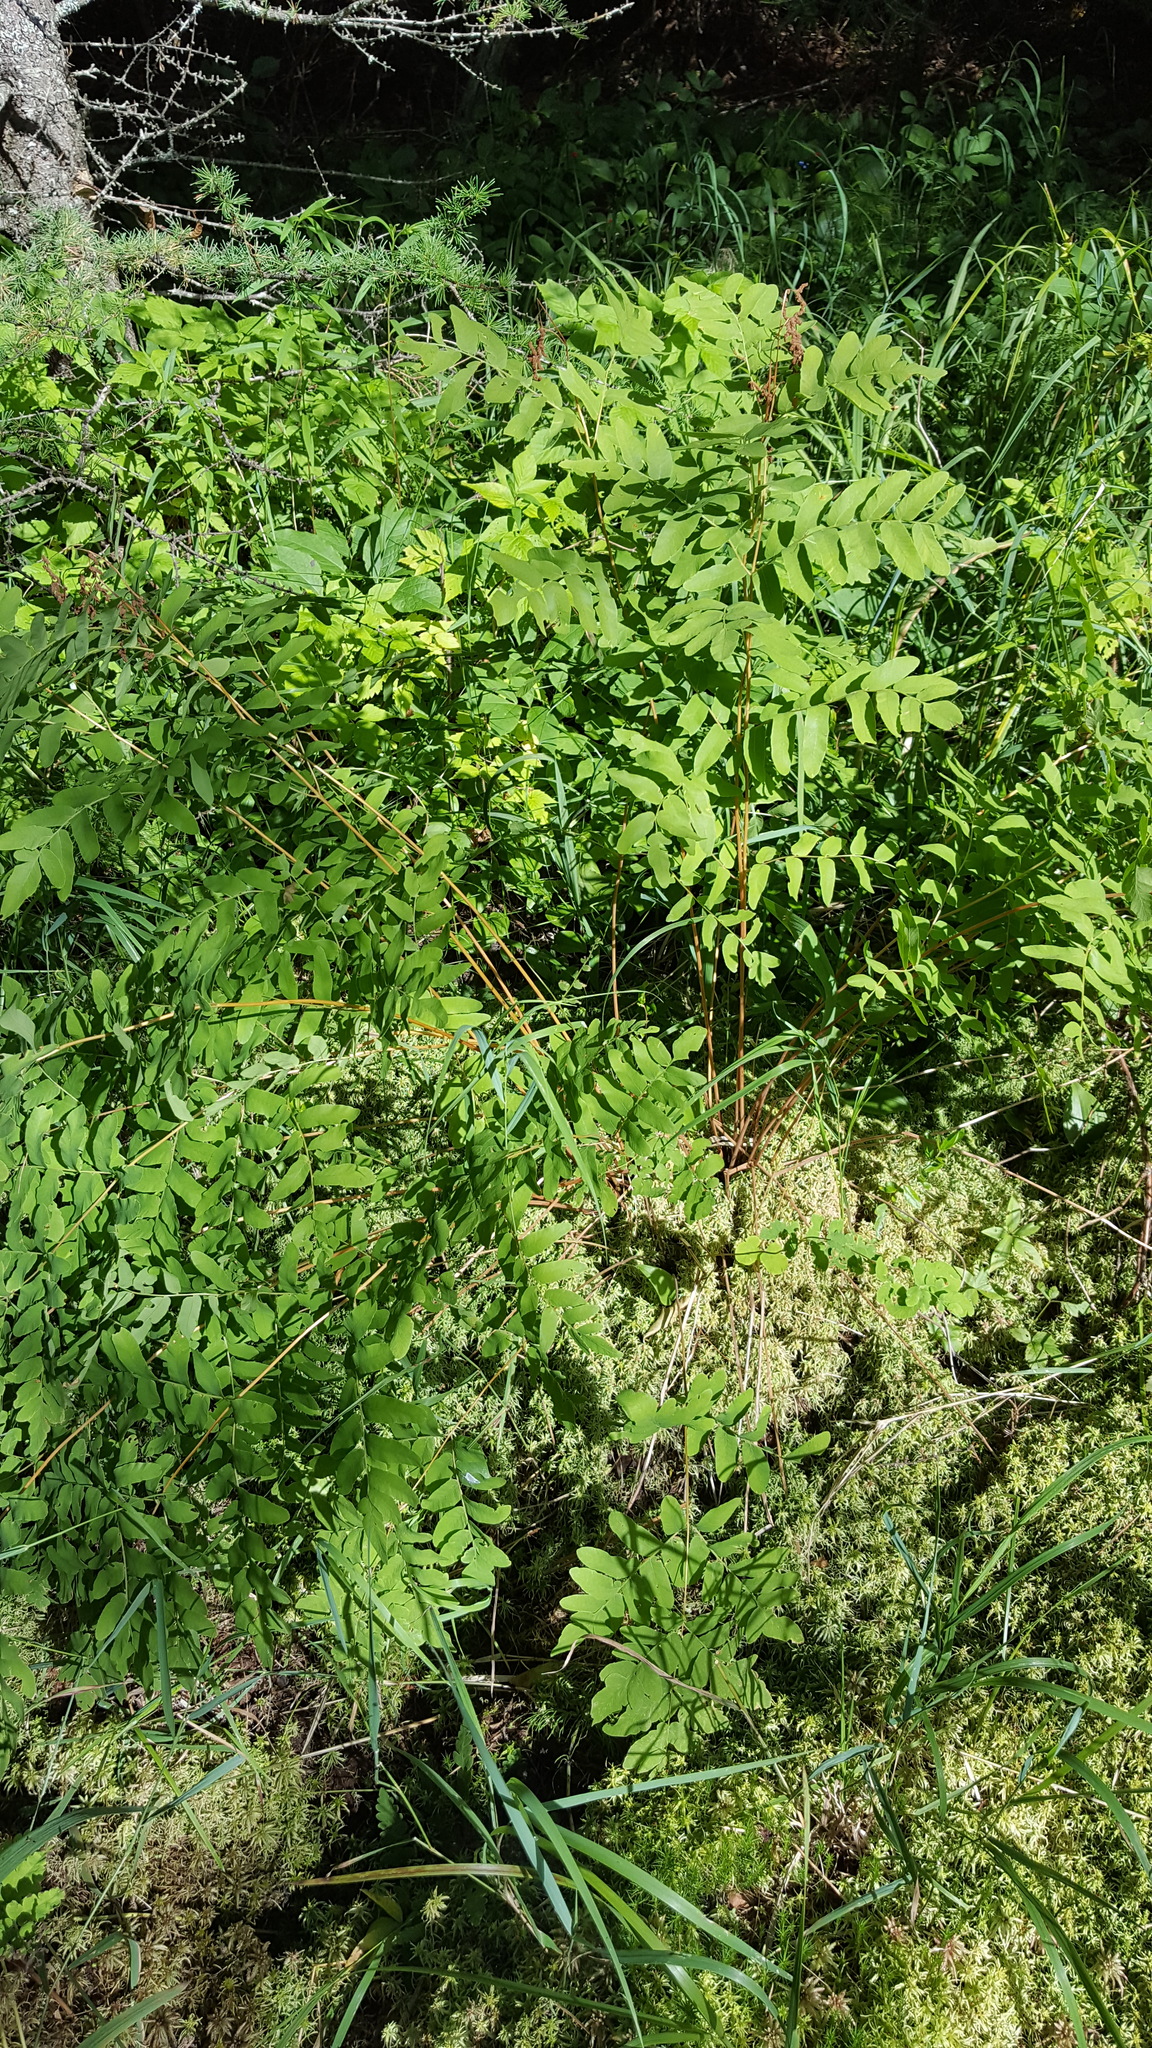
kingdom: Plantae
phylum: Tracheophyta
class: Polypodiopsida
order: Osmundales
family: Osmundaceae
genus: Osmunda
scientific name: Osmunda spectabilis
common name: American royal fern
